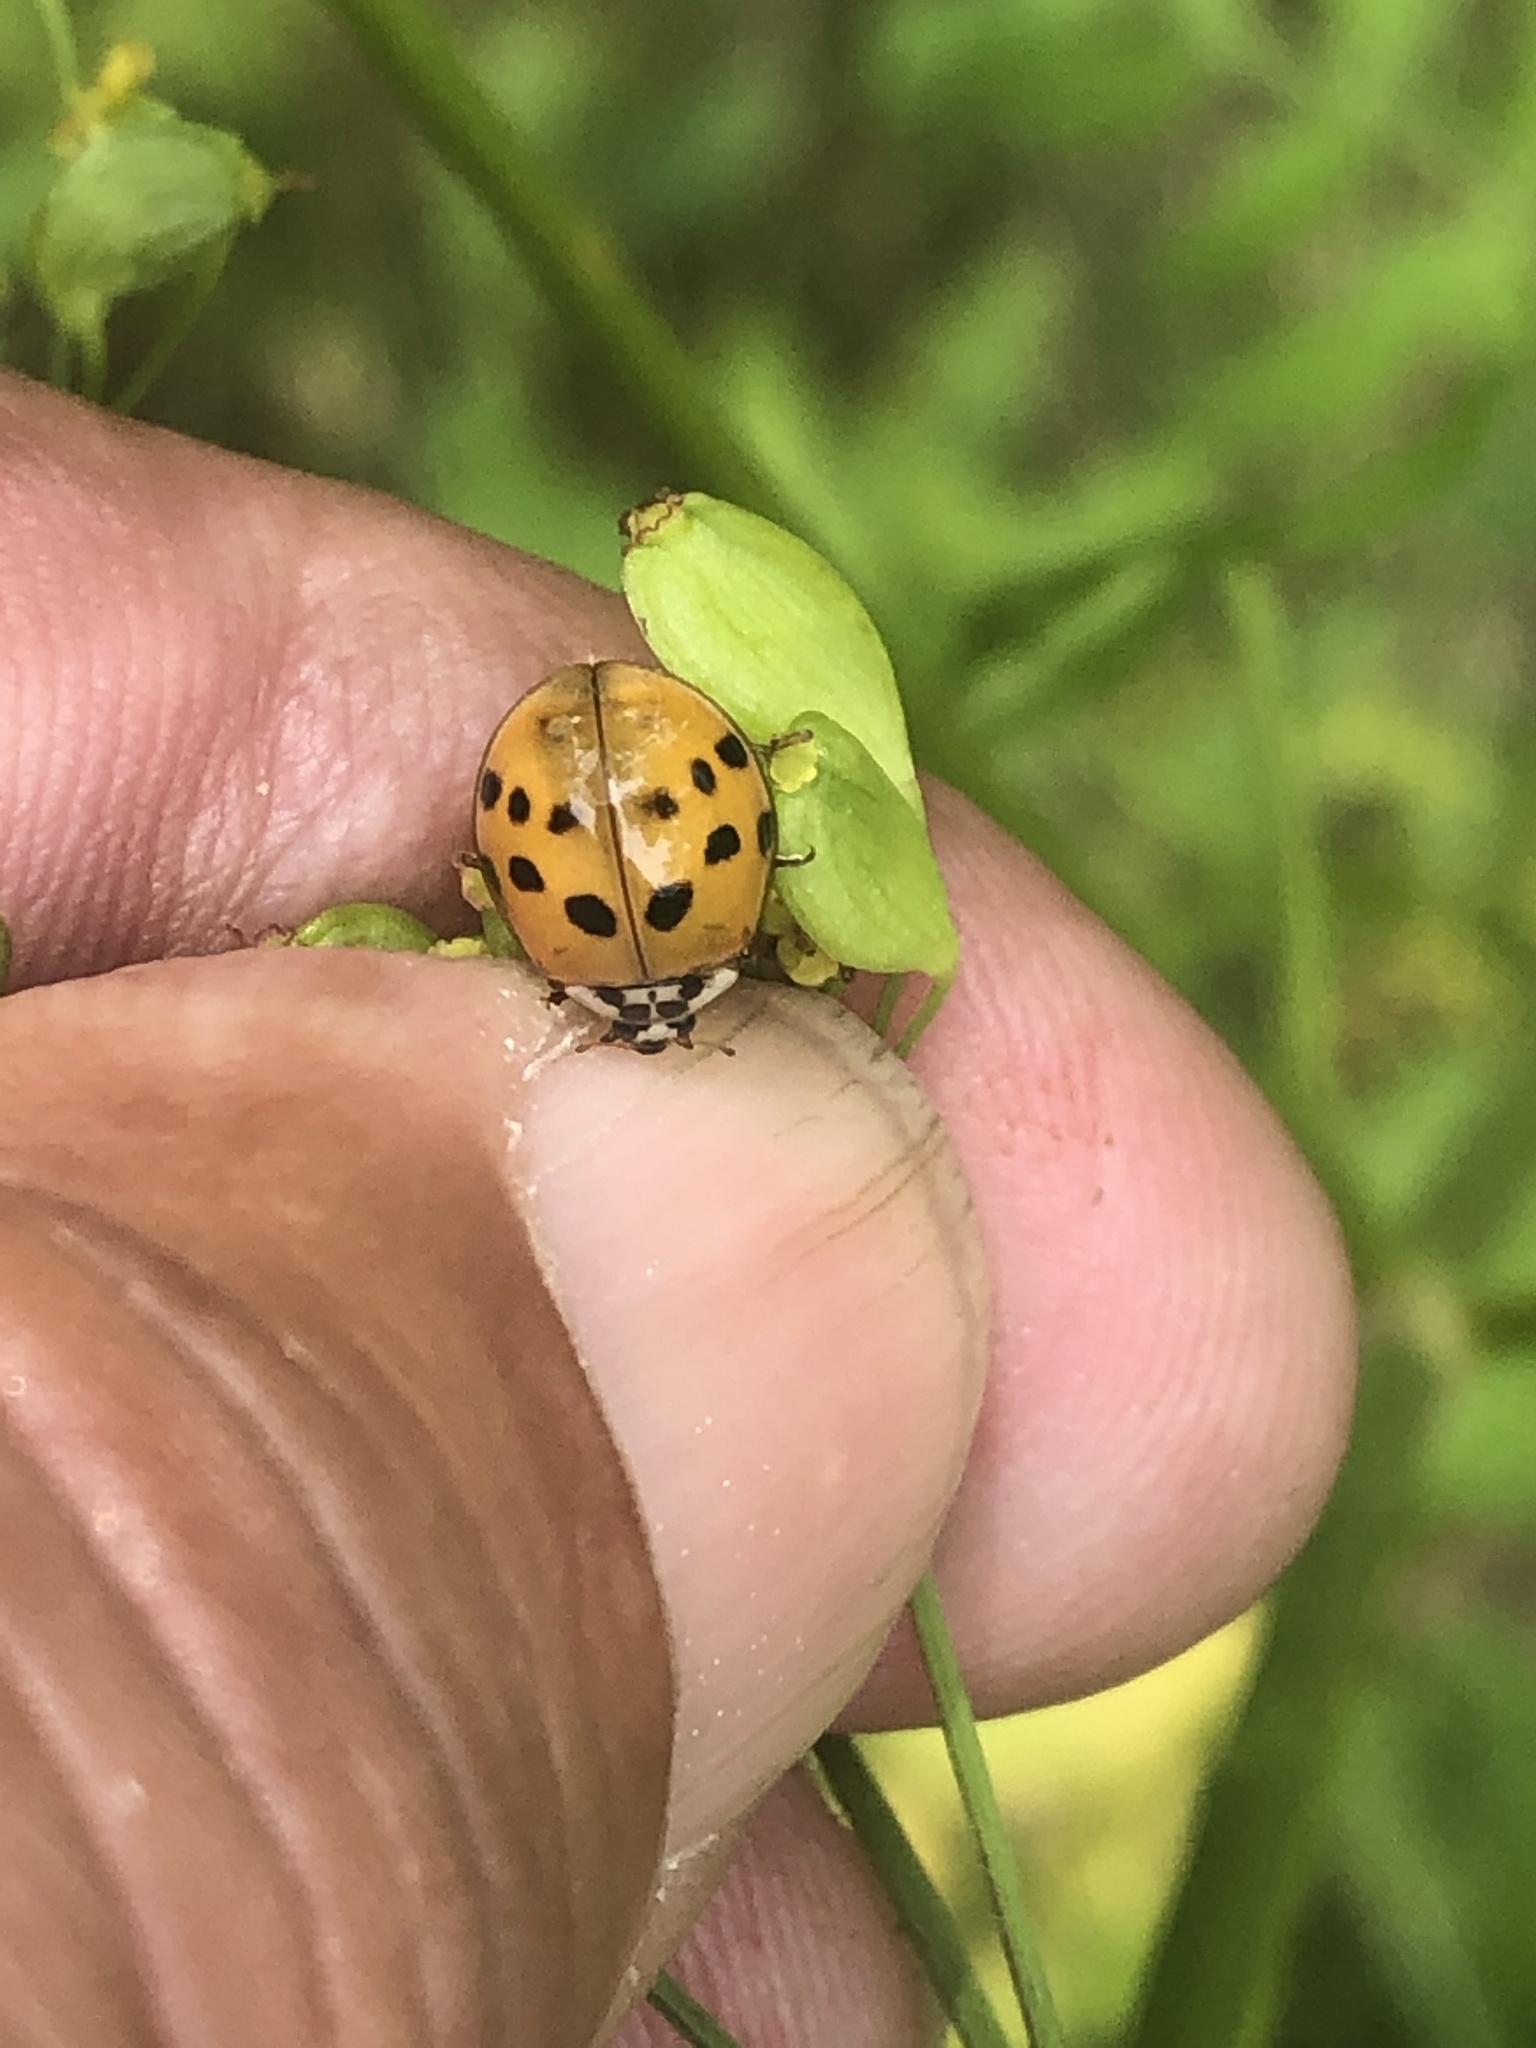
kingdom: Animalia
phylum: Arthropoda
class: Insecta
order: Coleoptera
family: Coccinellidae
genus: Harmonia
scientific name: Harmonia axyridis
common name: Harlequin ladybird
